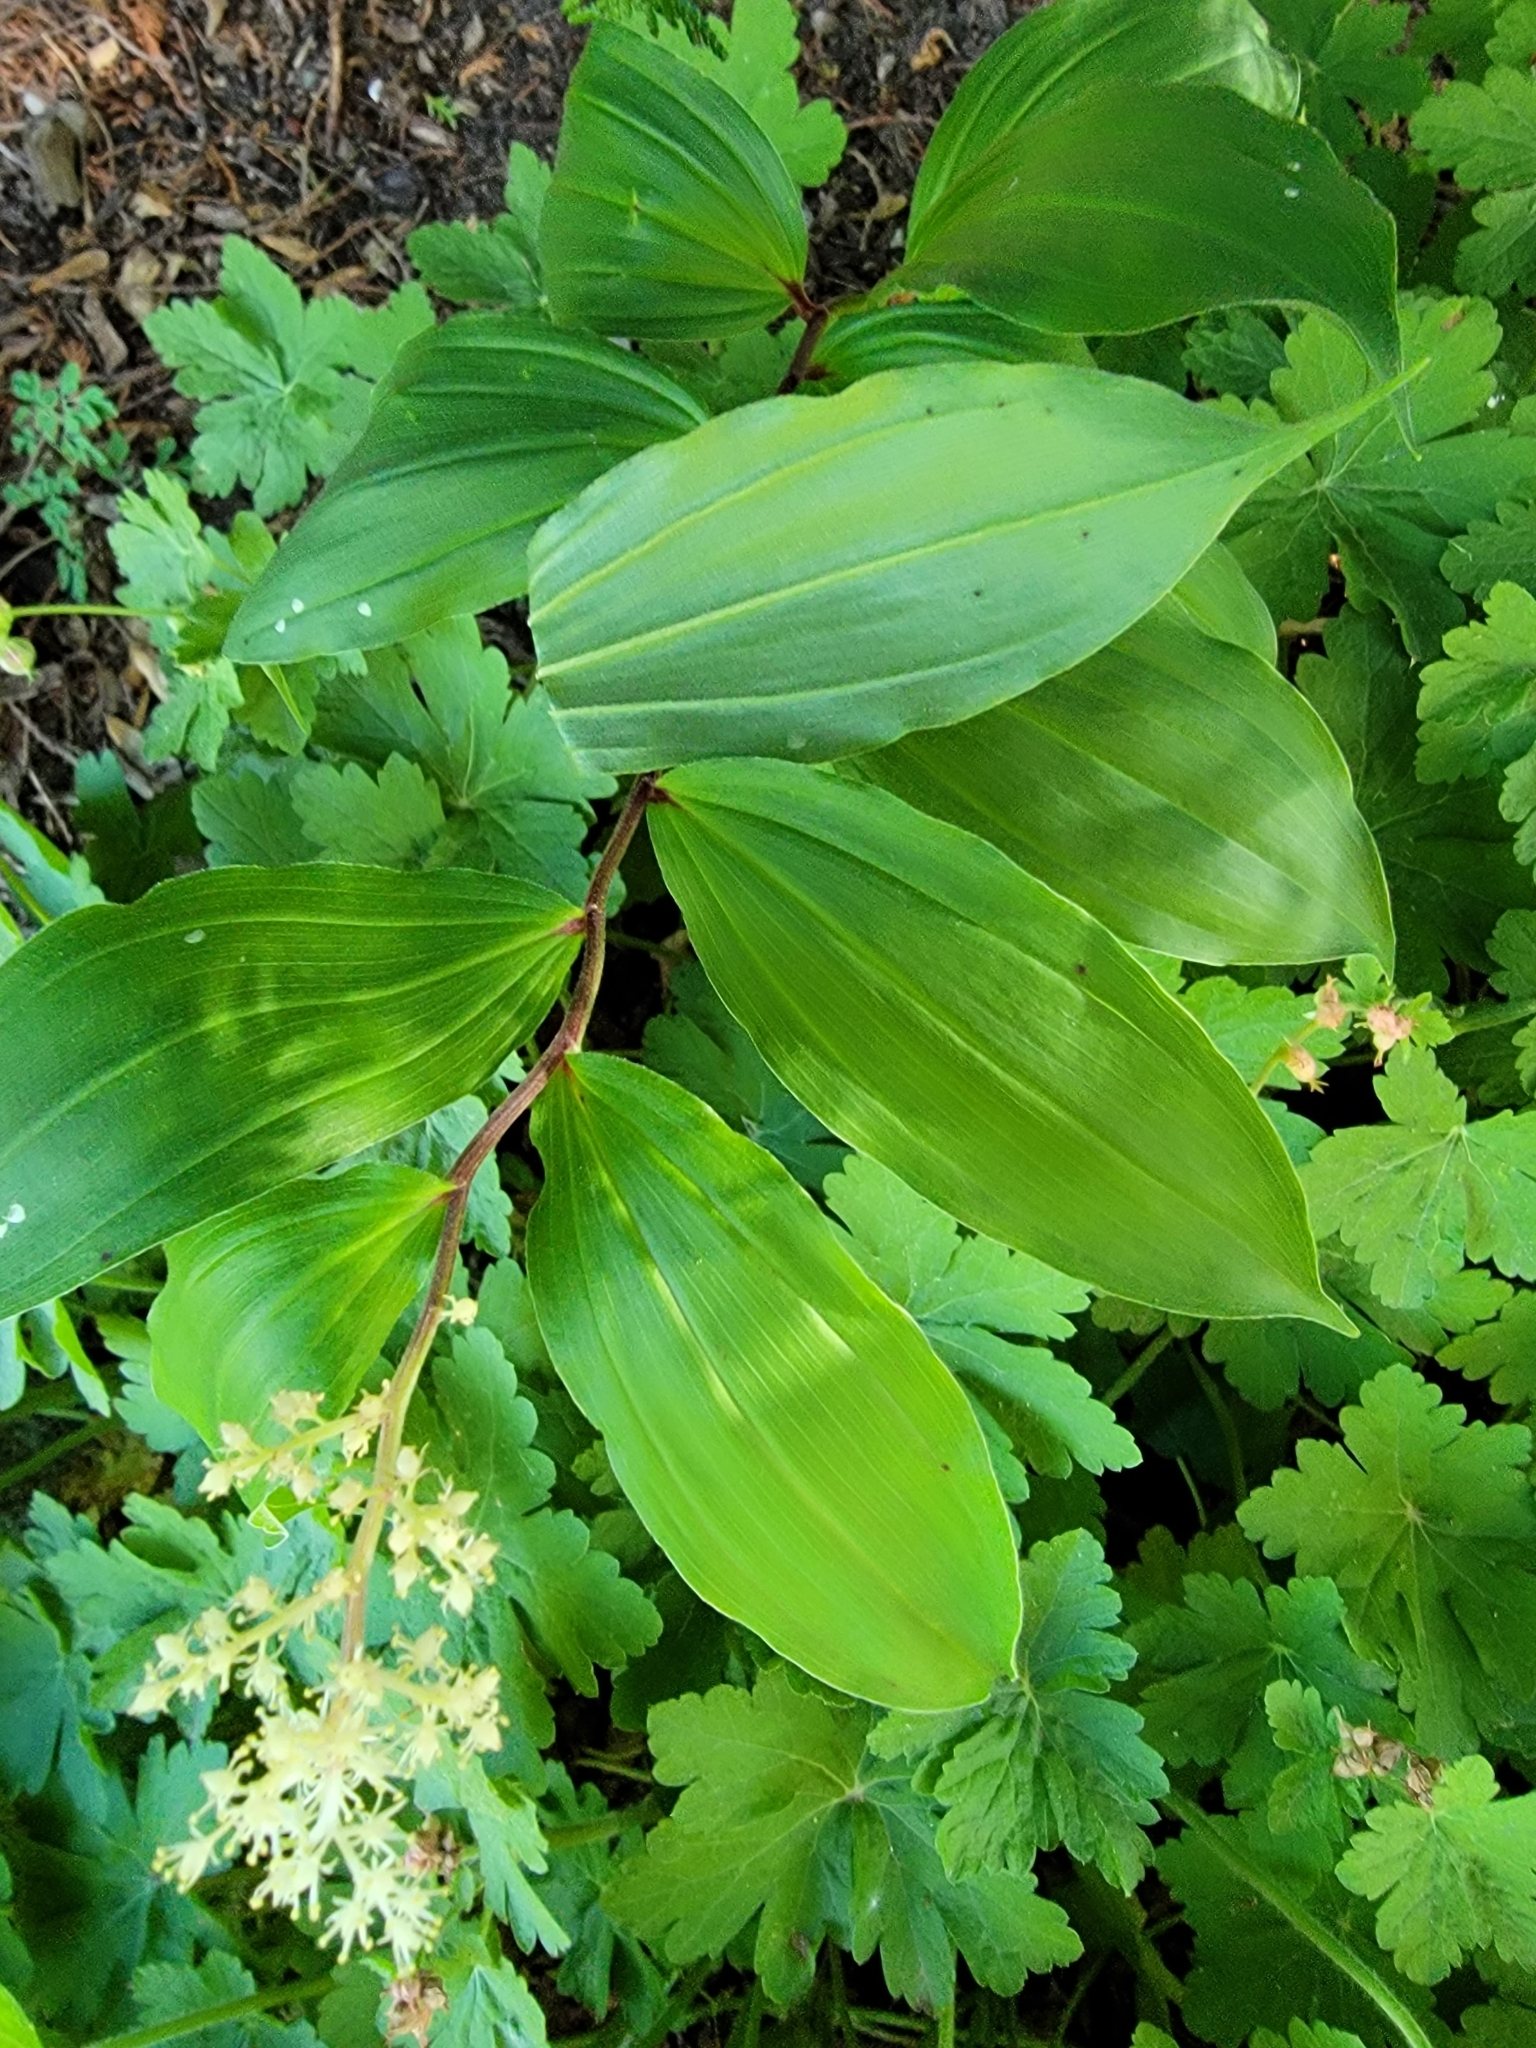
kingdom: Plantae
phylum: Tracheophyta
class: Liliopsida
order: Asparagales
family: Asparagaceae
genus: Maianthemum
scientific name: Maianthemum racemosum
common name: False spikenard
